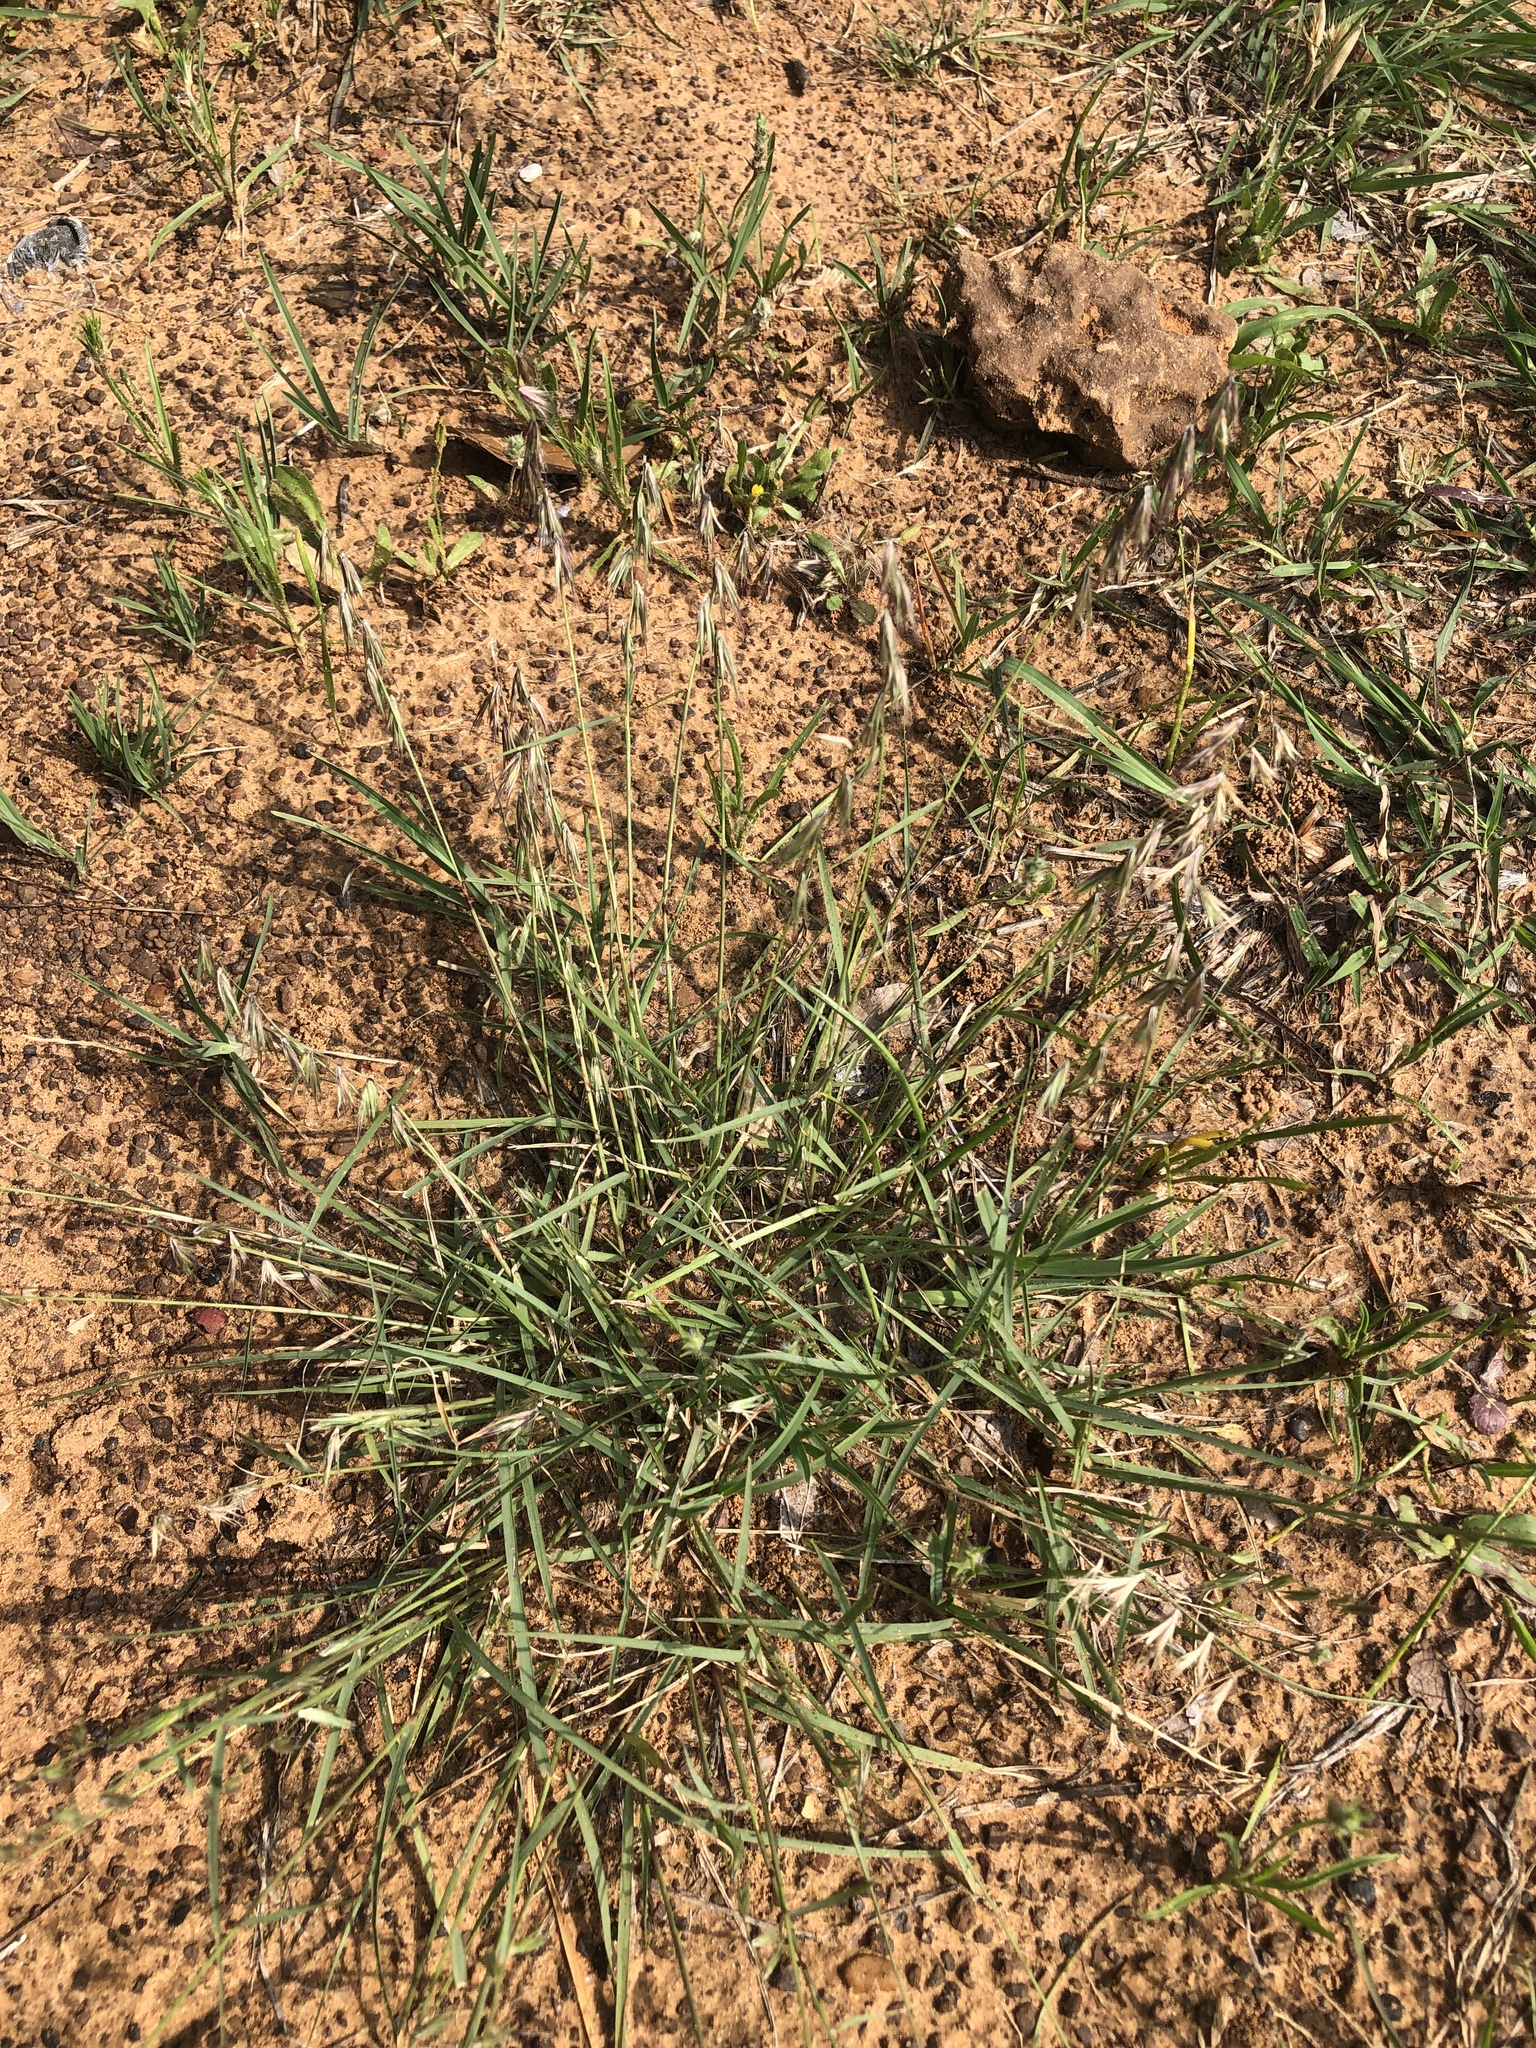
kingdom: Plantae
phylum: Tracheophyta
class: Liliopsida
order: Poales
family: Poaceae
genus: Bouteloua
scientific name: Bouteloua rigidiseta
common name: Texas grama
